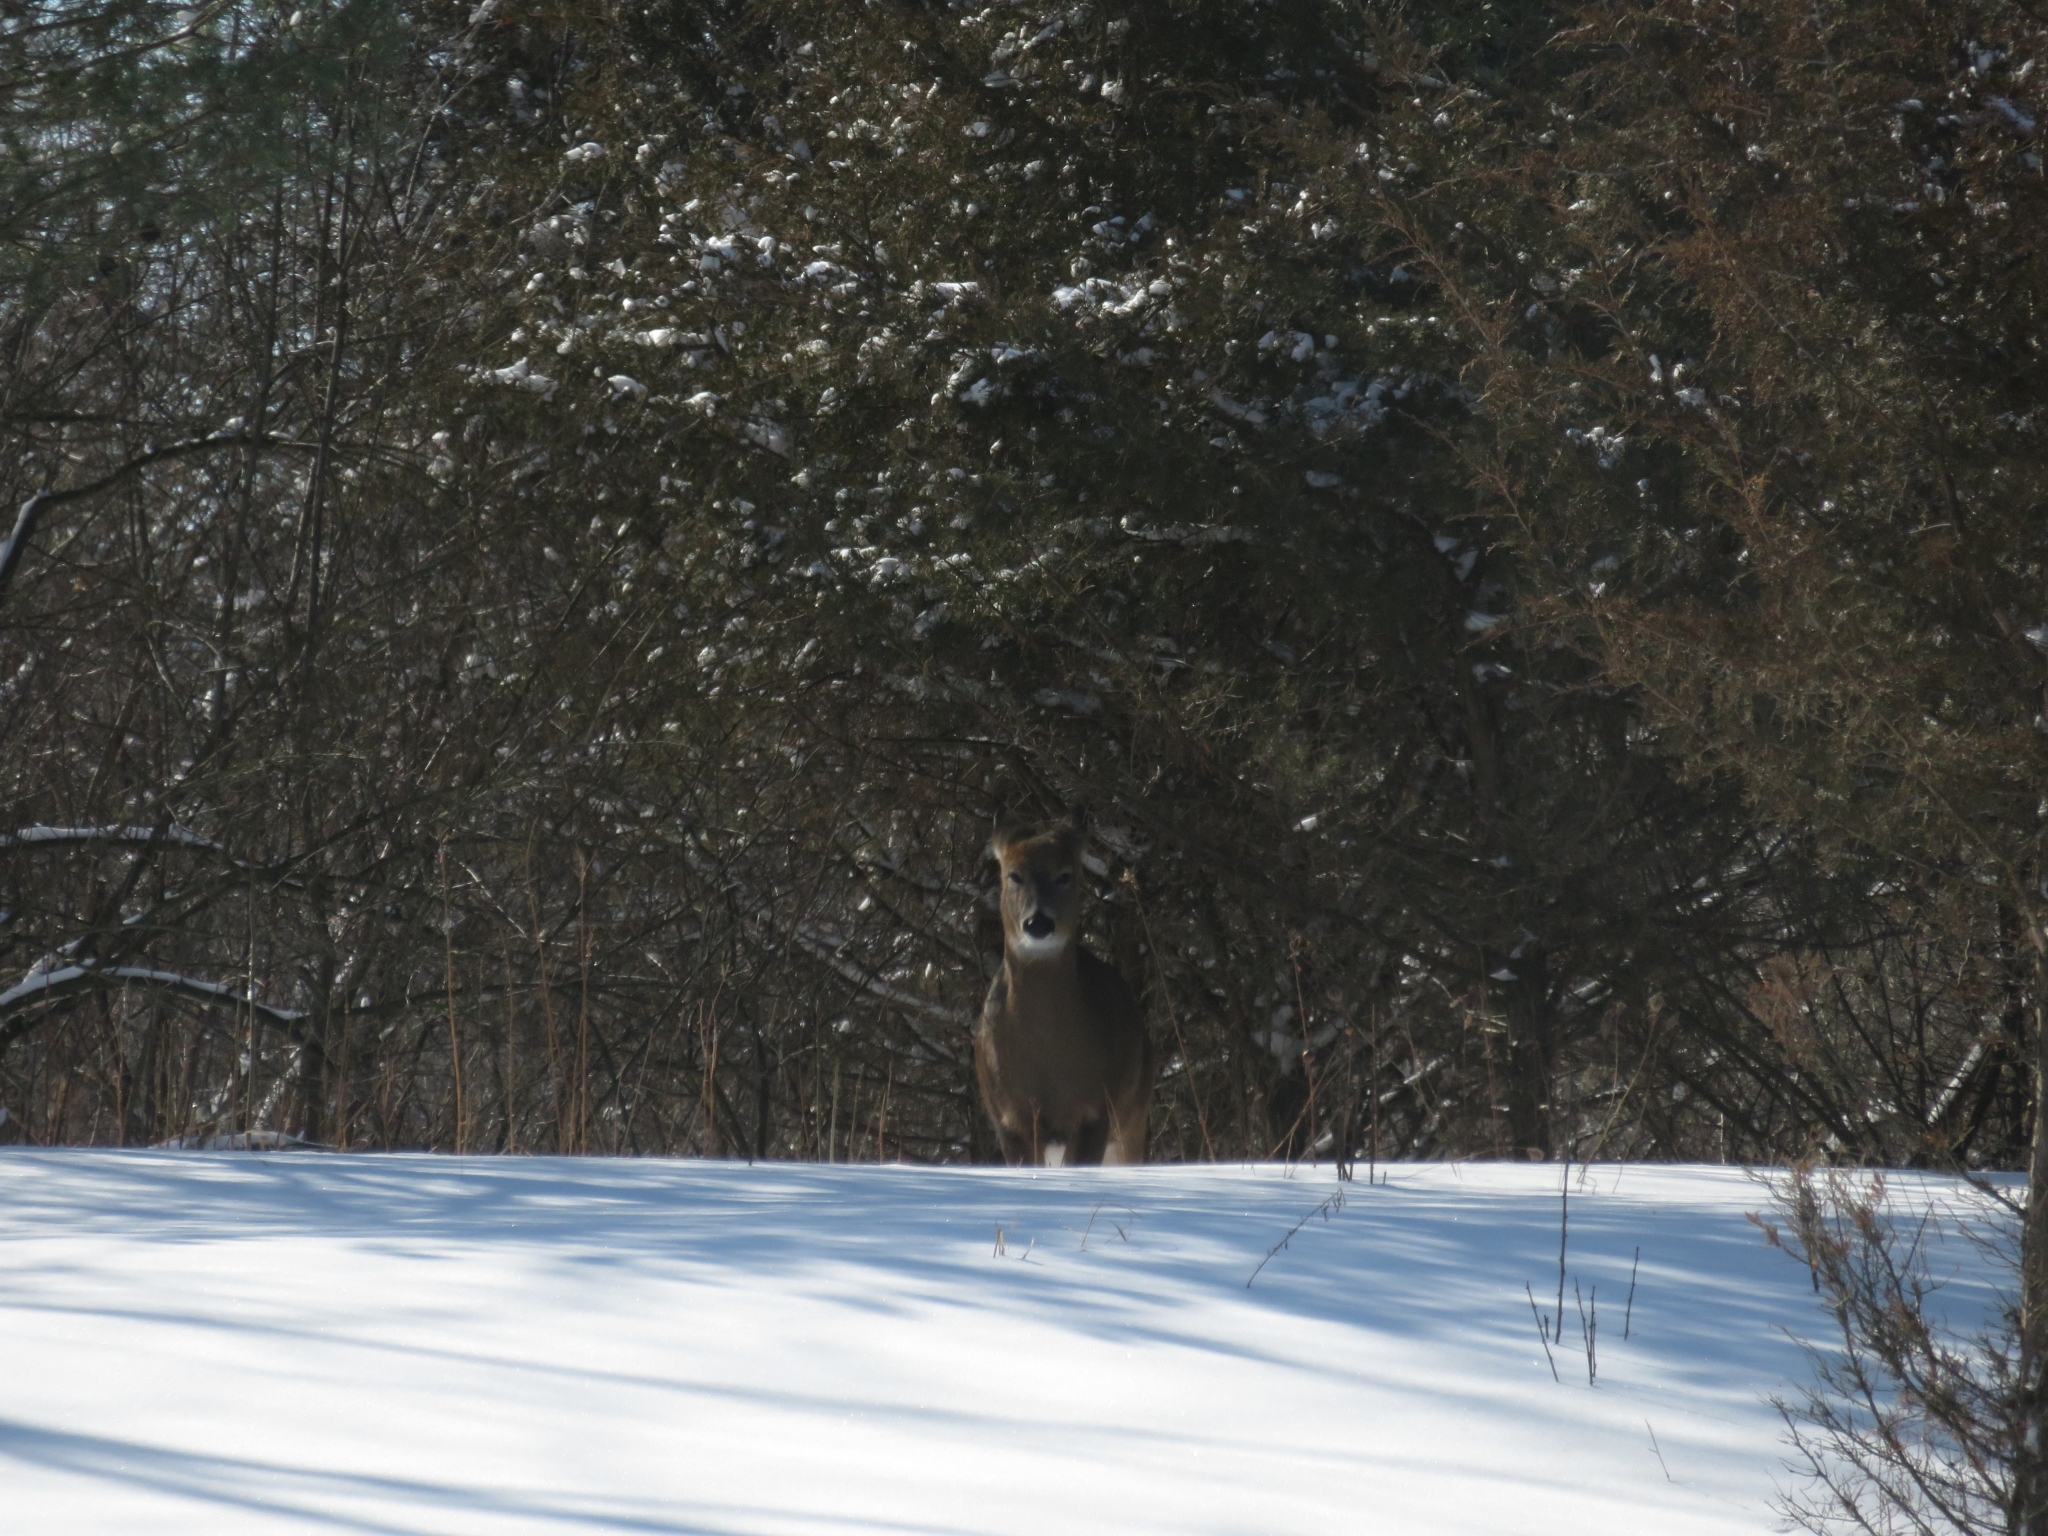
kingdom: Animalia
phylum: Chordata
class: Mammalia
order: Artiodactyla
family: Cervidae
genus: Odocoileus
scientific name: Odocoileus virginianus
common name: White-tailed deer
